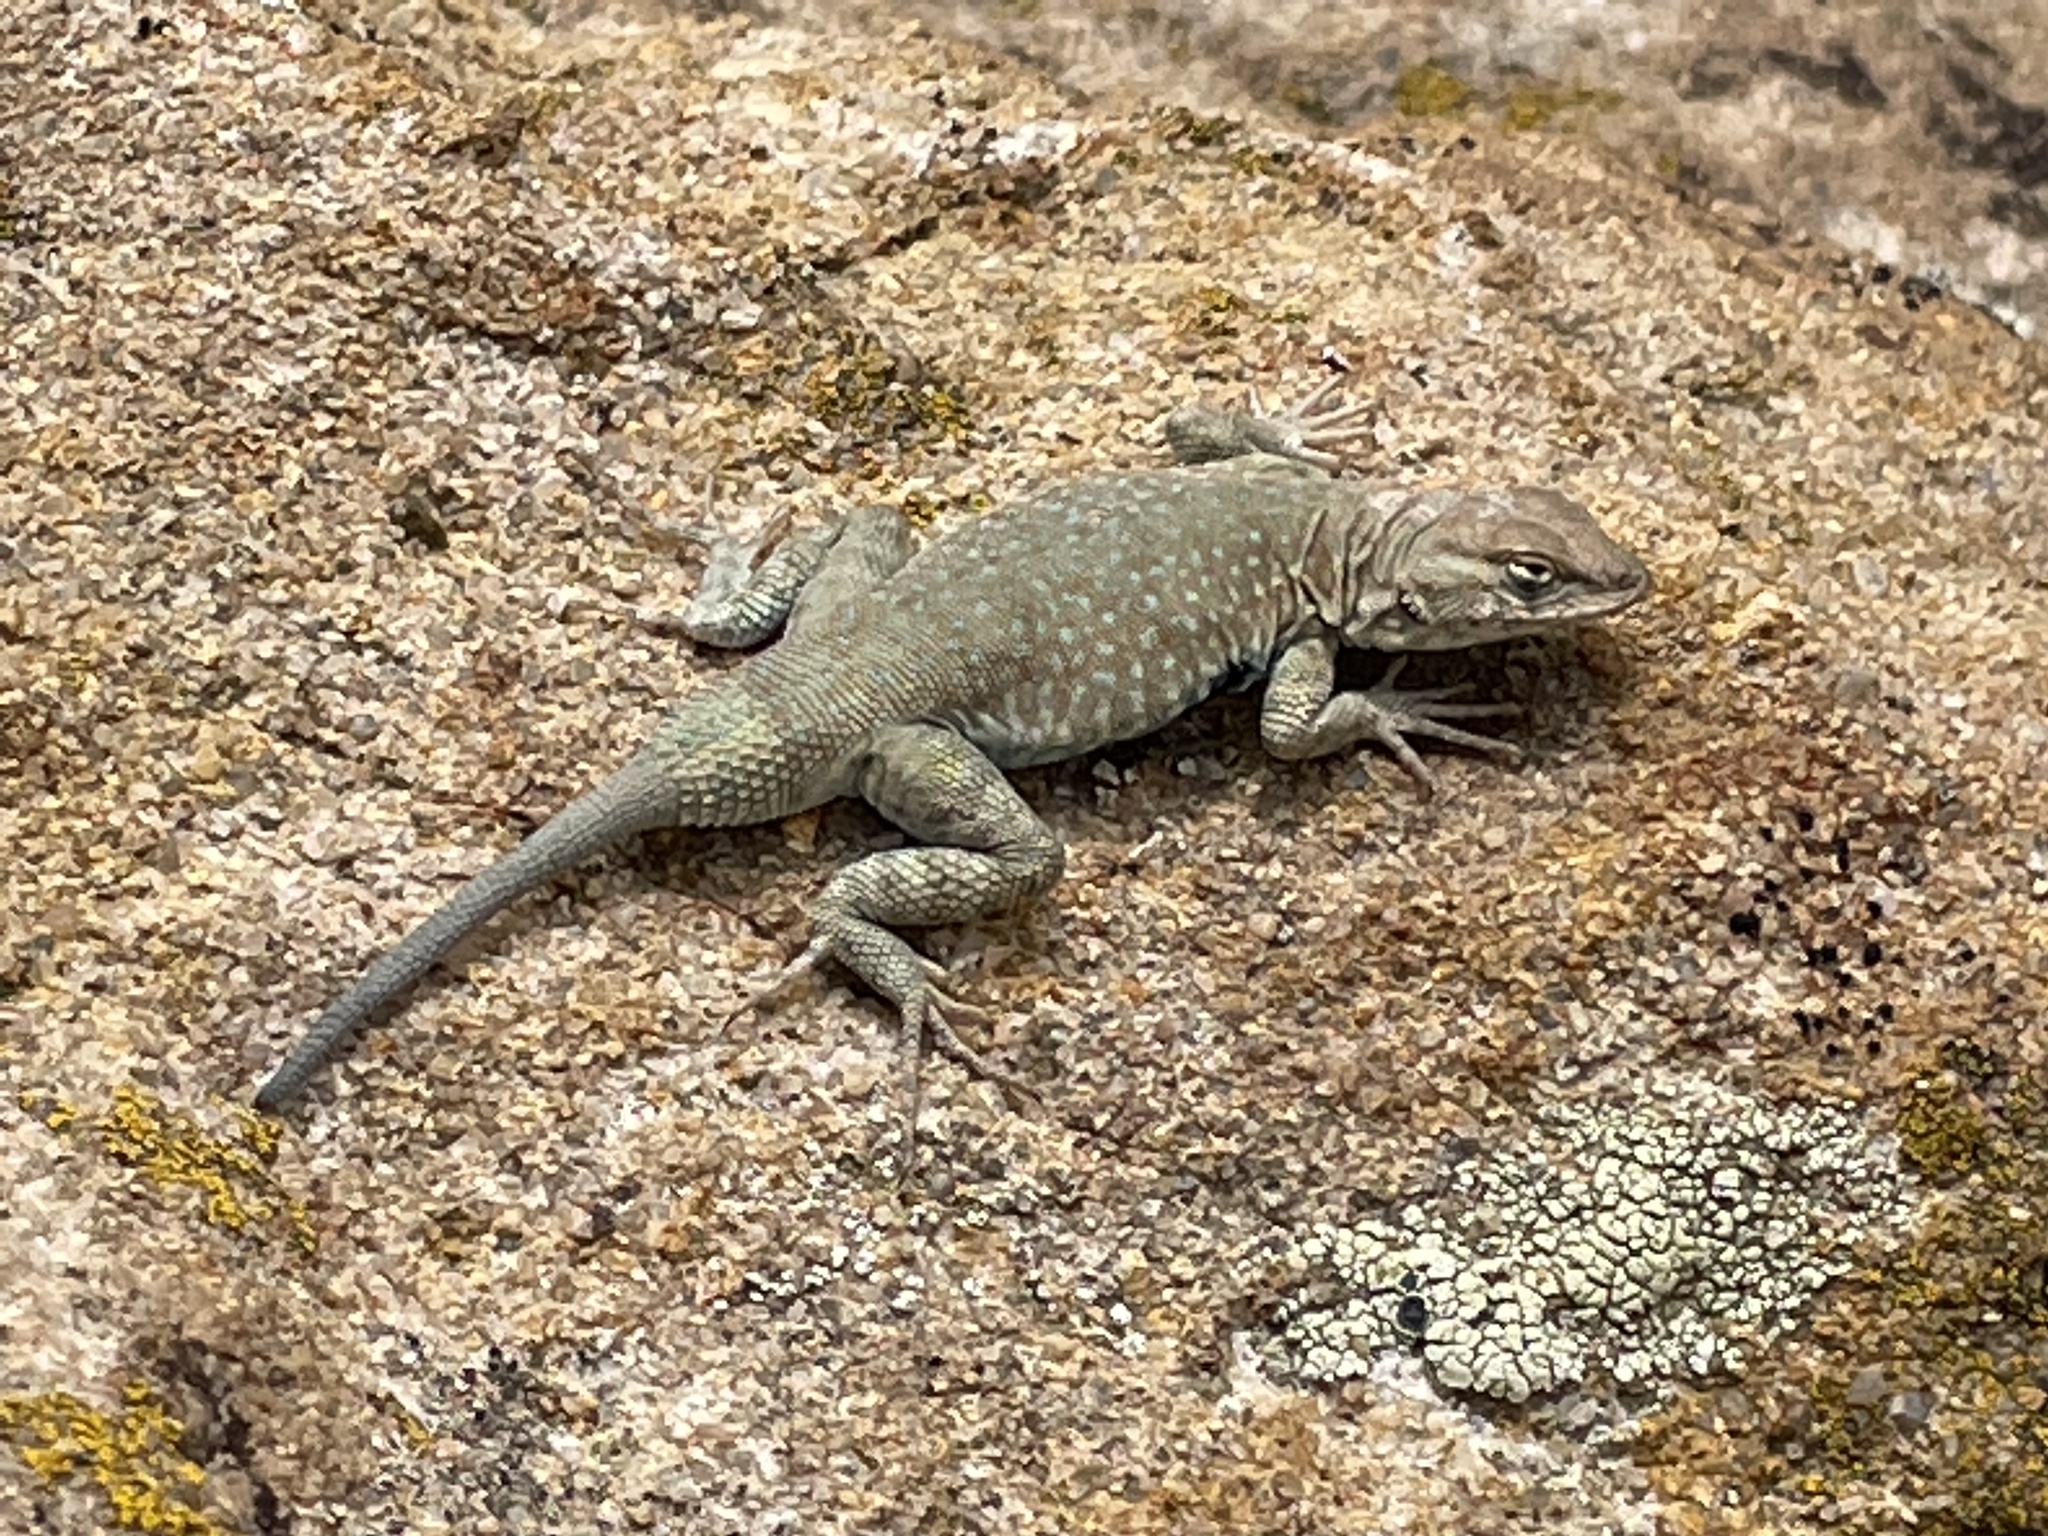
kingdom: Animalia
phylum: Chordata
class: Squamata
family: Phrynosomatidae
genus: Uta
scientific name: Uta stansburiana
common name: Side-blotched lizard
